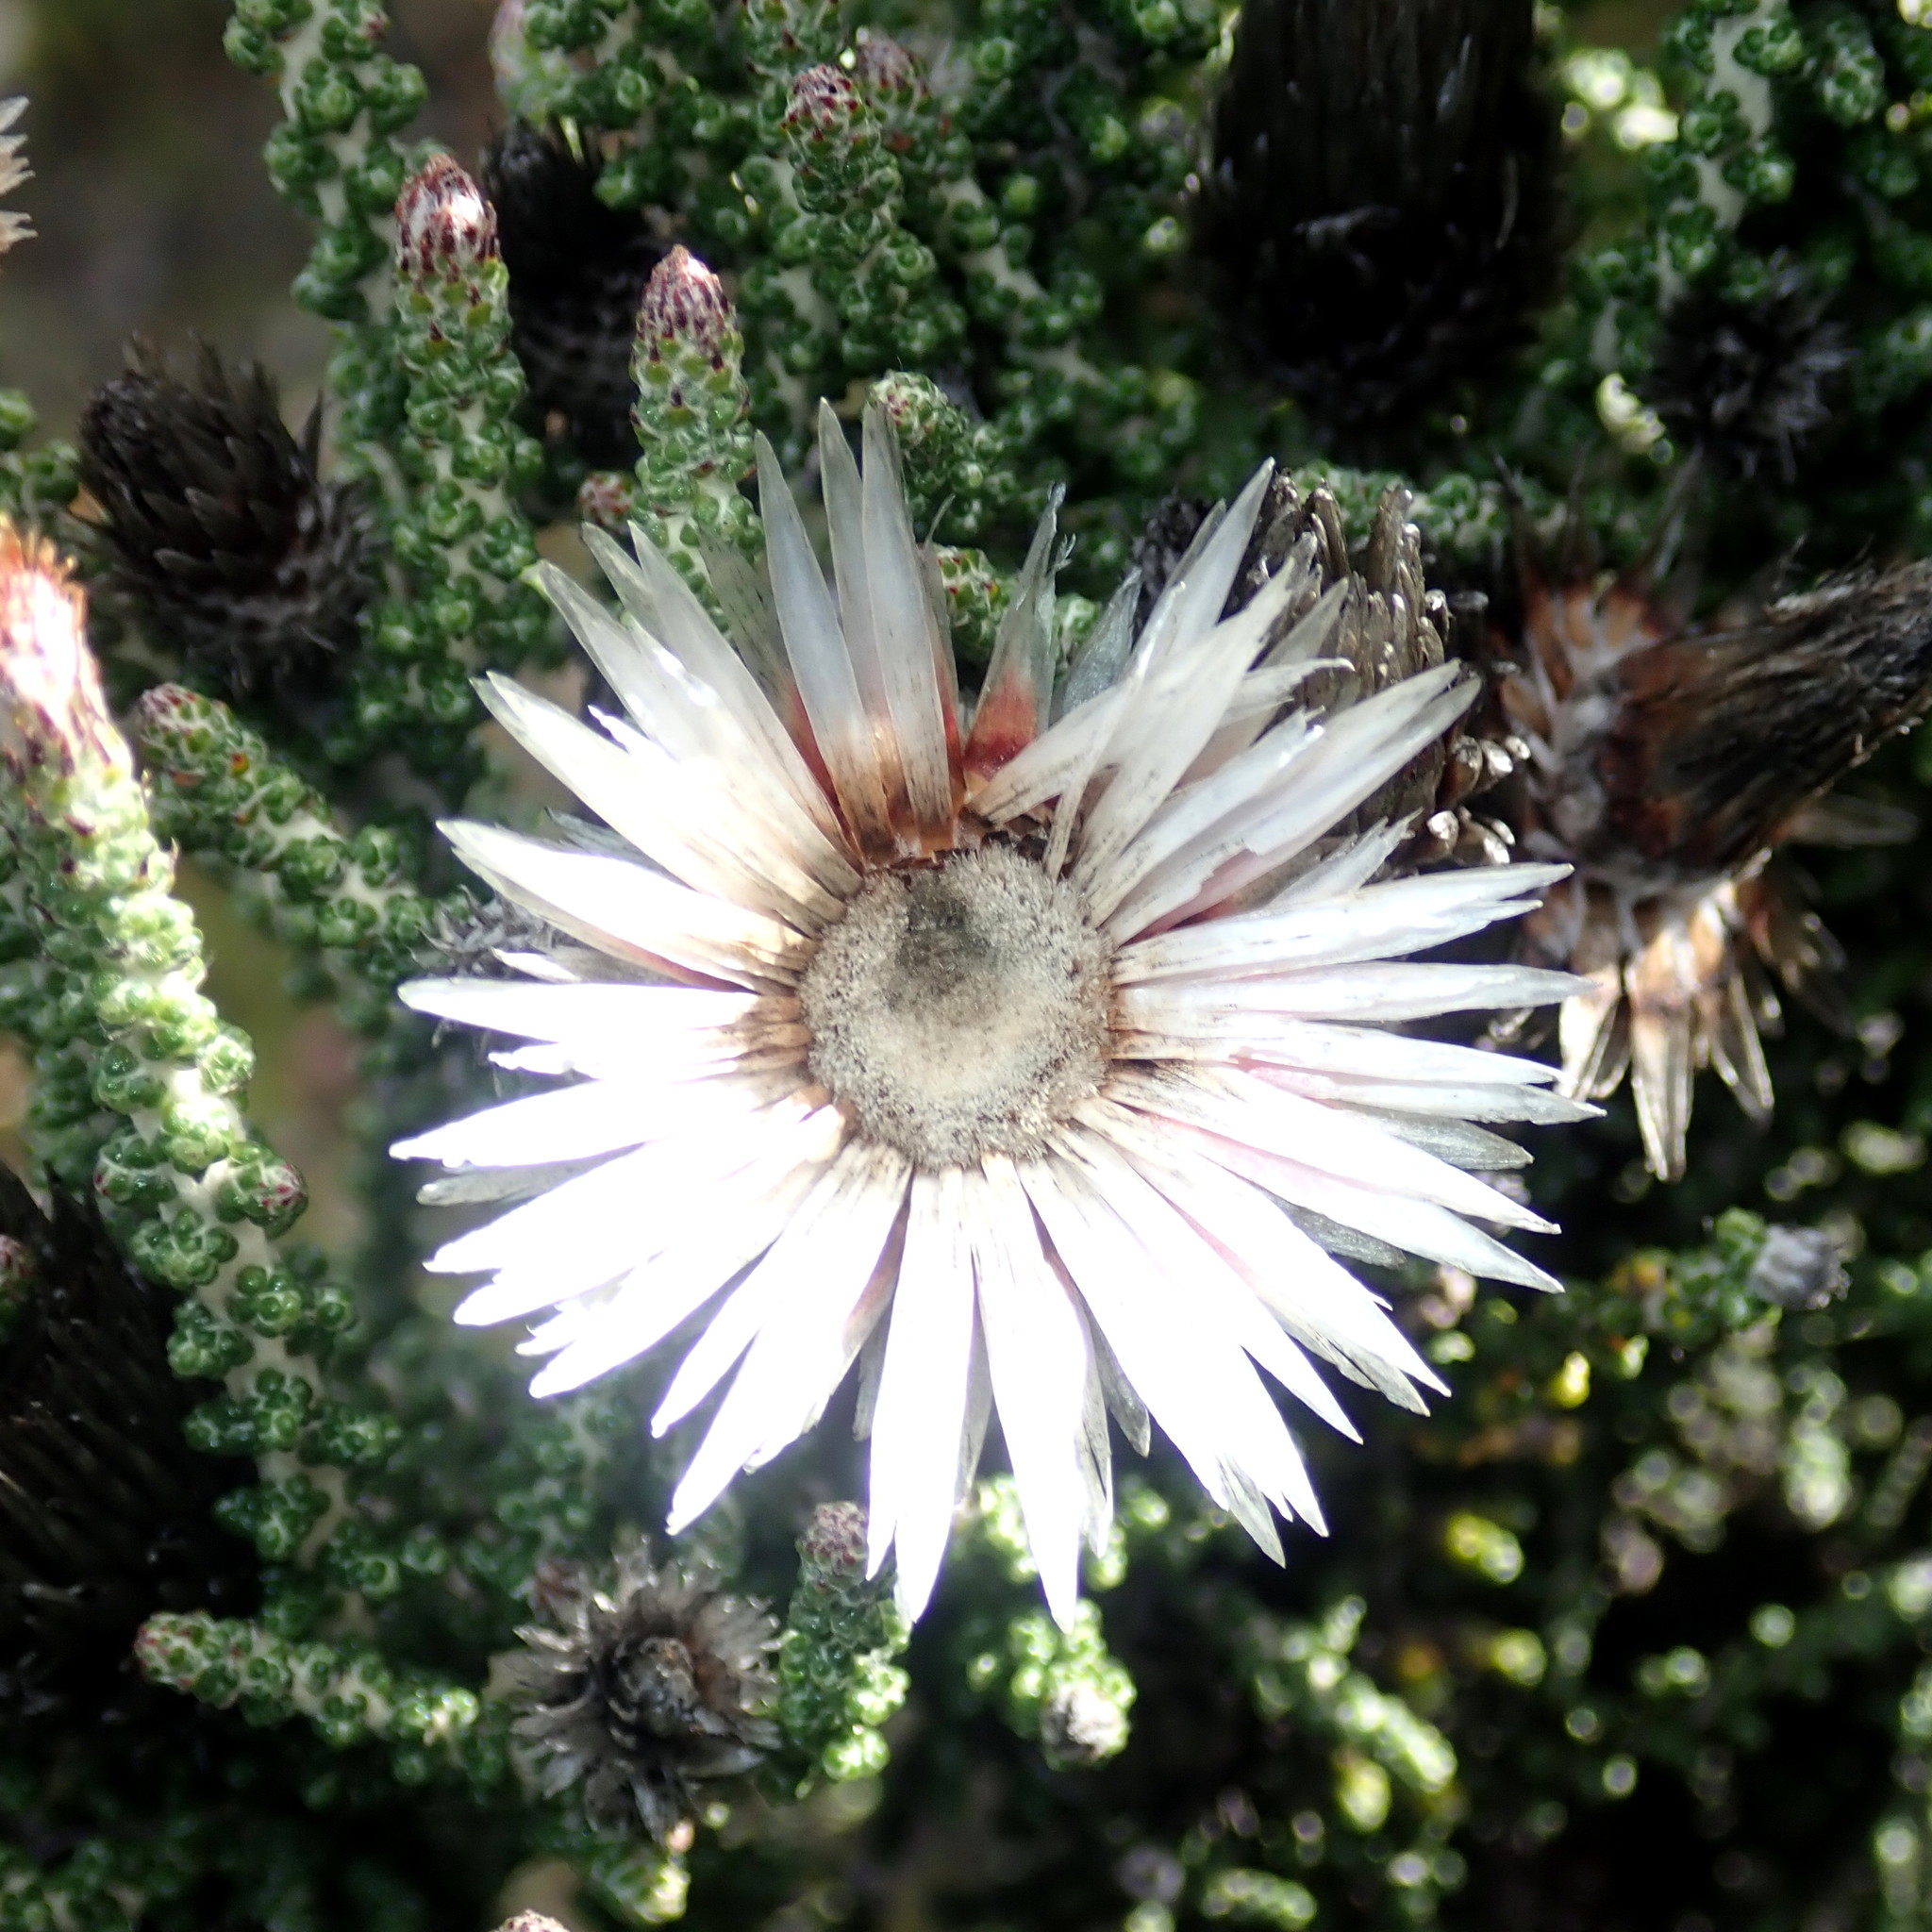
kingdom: Plantae
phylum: Tracheophyta
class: Magnoliopsida
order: Asterales
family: Asteraceae
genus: Phaenocoma
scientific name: Phaenocoma prolifera
